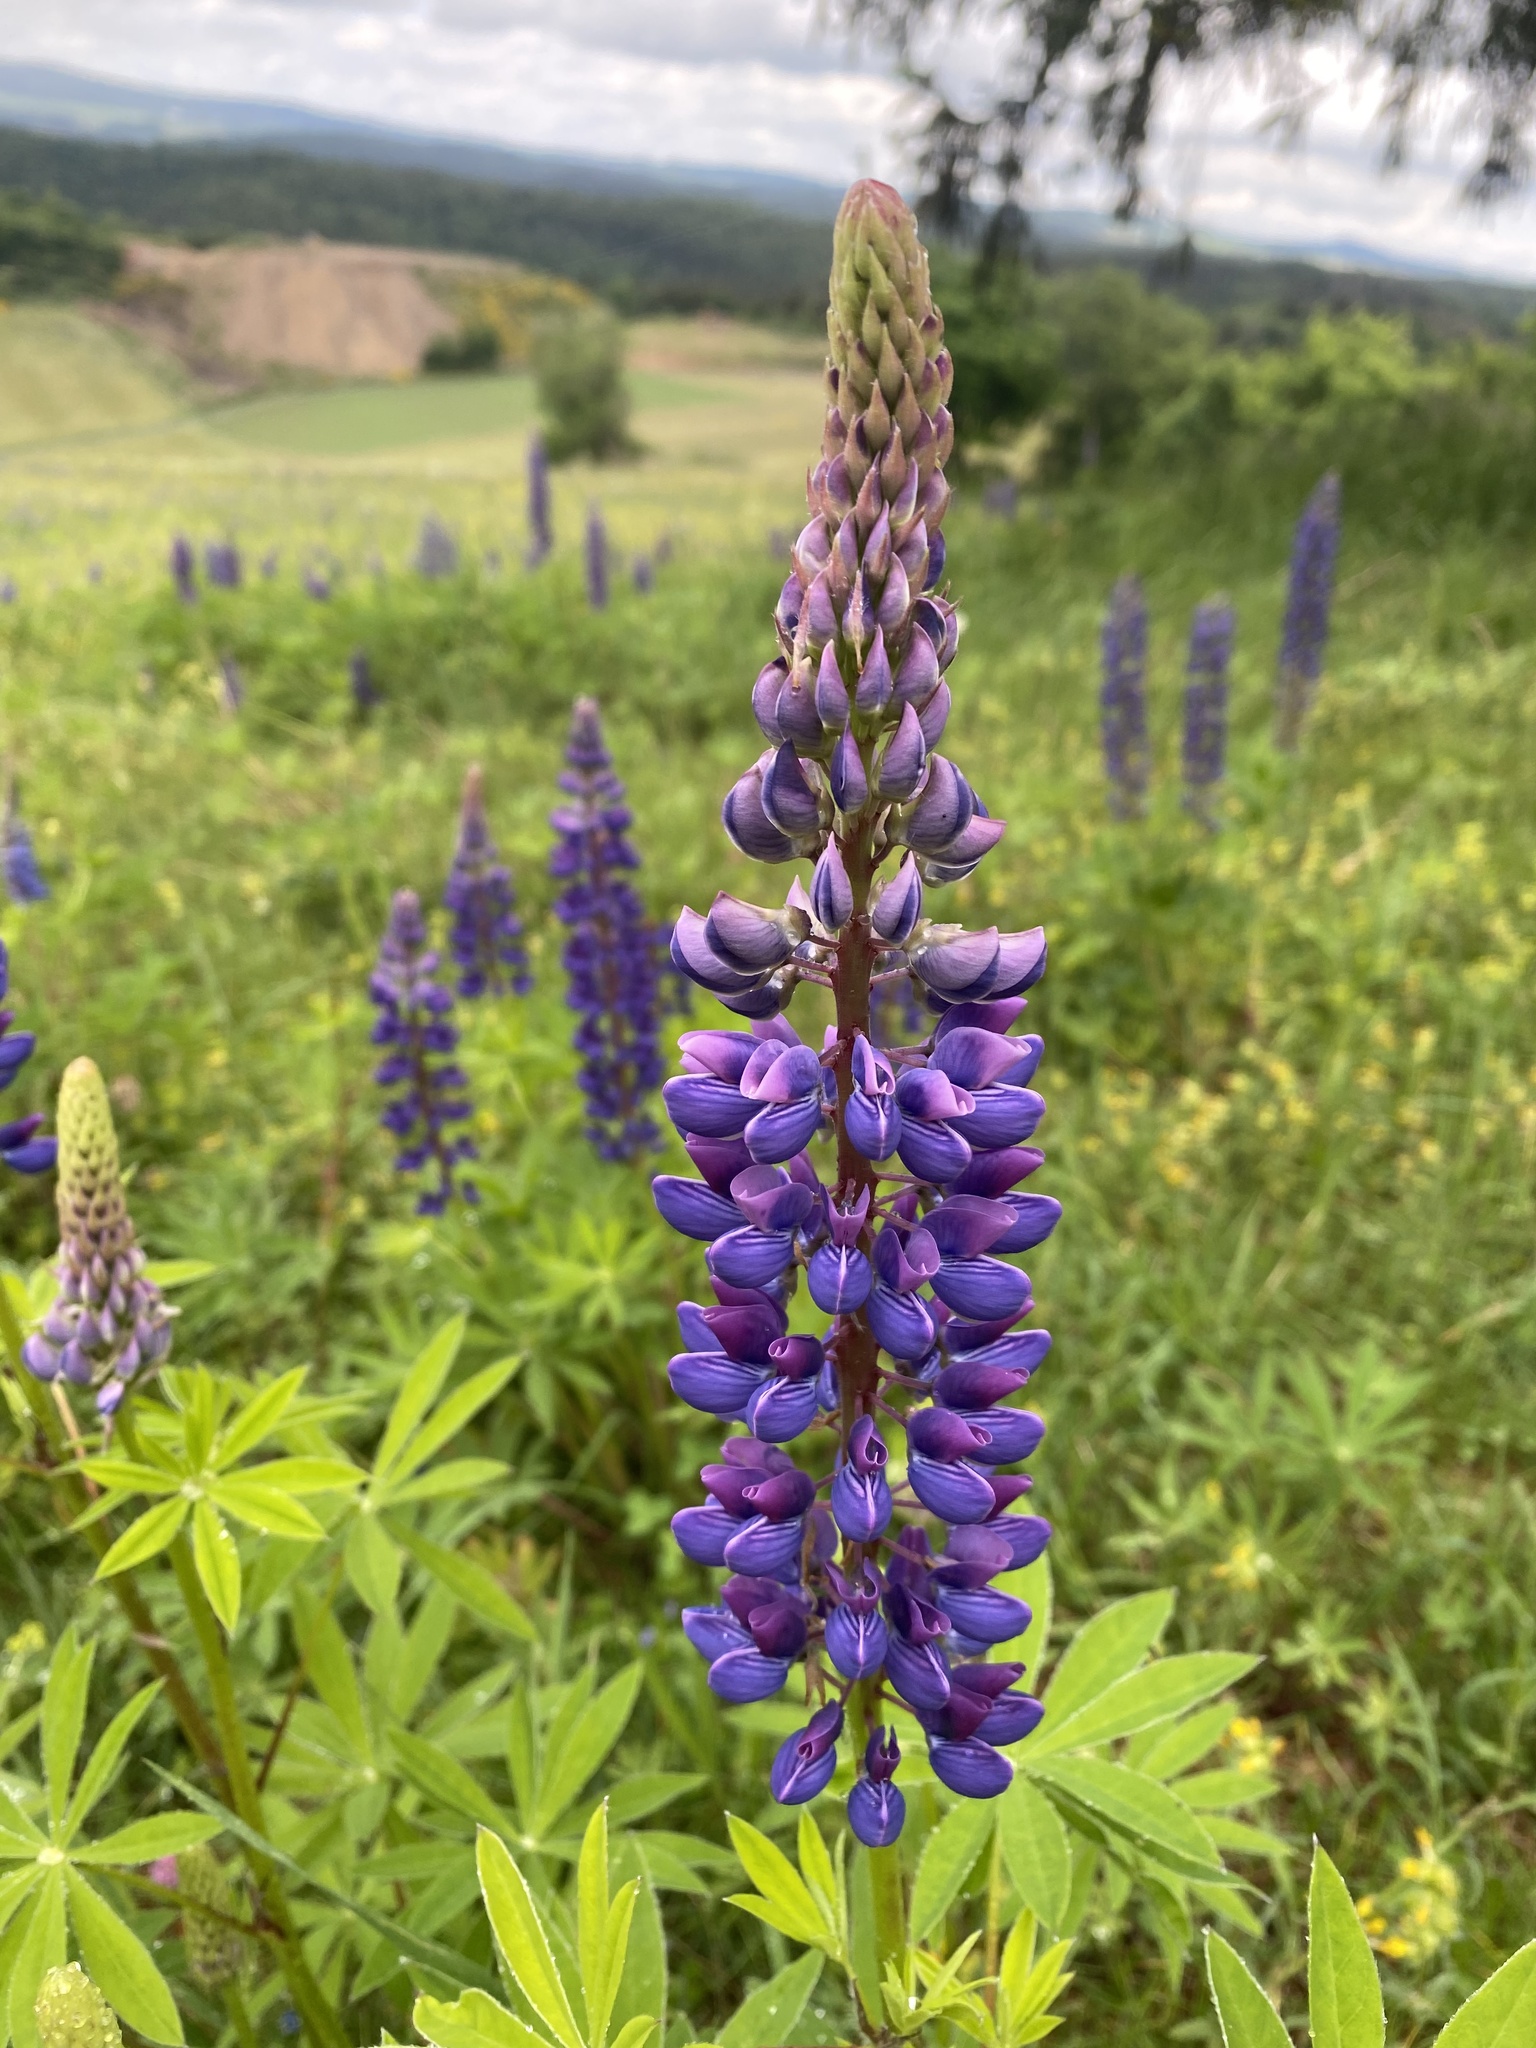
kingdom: Plantae
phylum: Tracheophyta
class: Magnoliopsida
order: Fabales
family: Fabaceae
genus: Lupinus
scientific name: Lupinus polyphyllus
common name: Garden lupin
